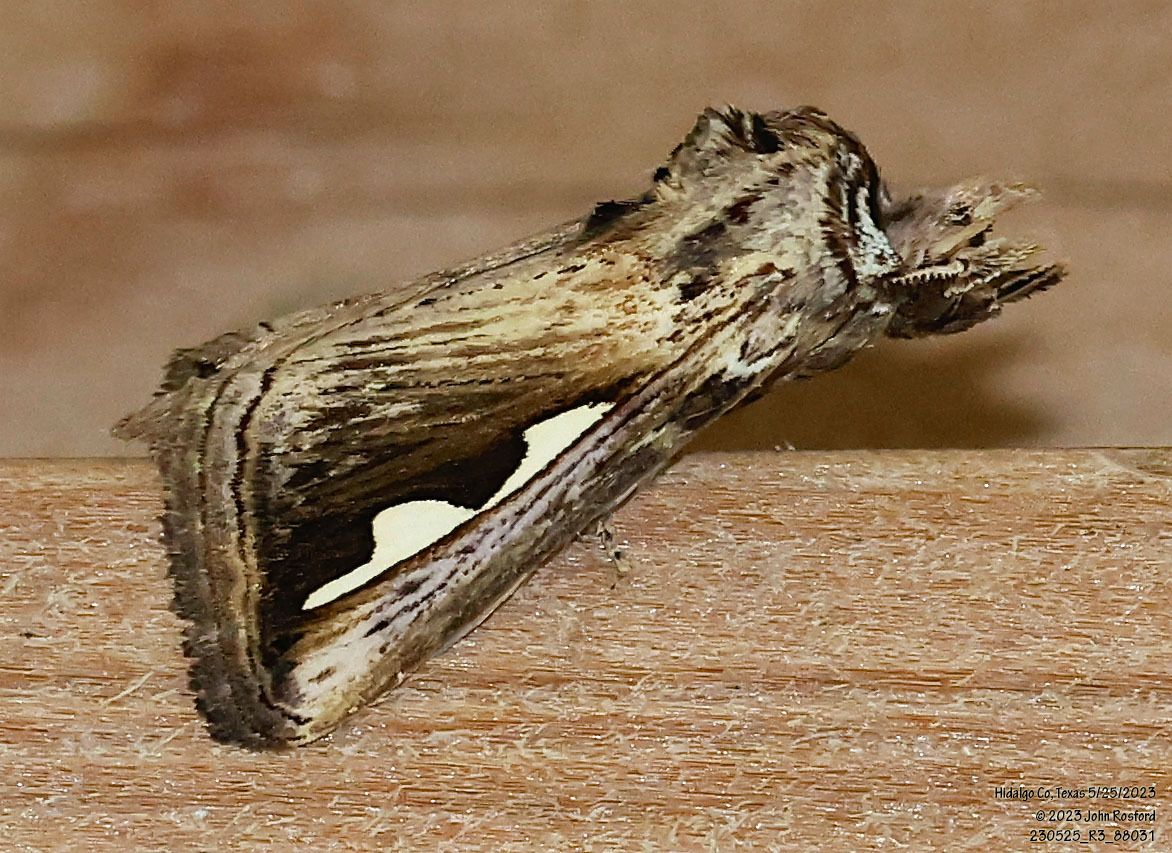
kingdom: Animalia
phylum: Arthropoda
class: Insecta
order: Lepidoptera
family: Notodontidae
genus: Didugua
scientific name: Didugua argentilinea
